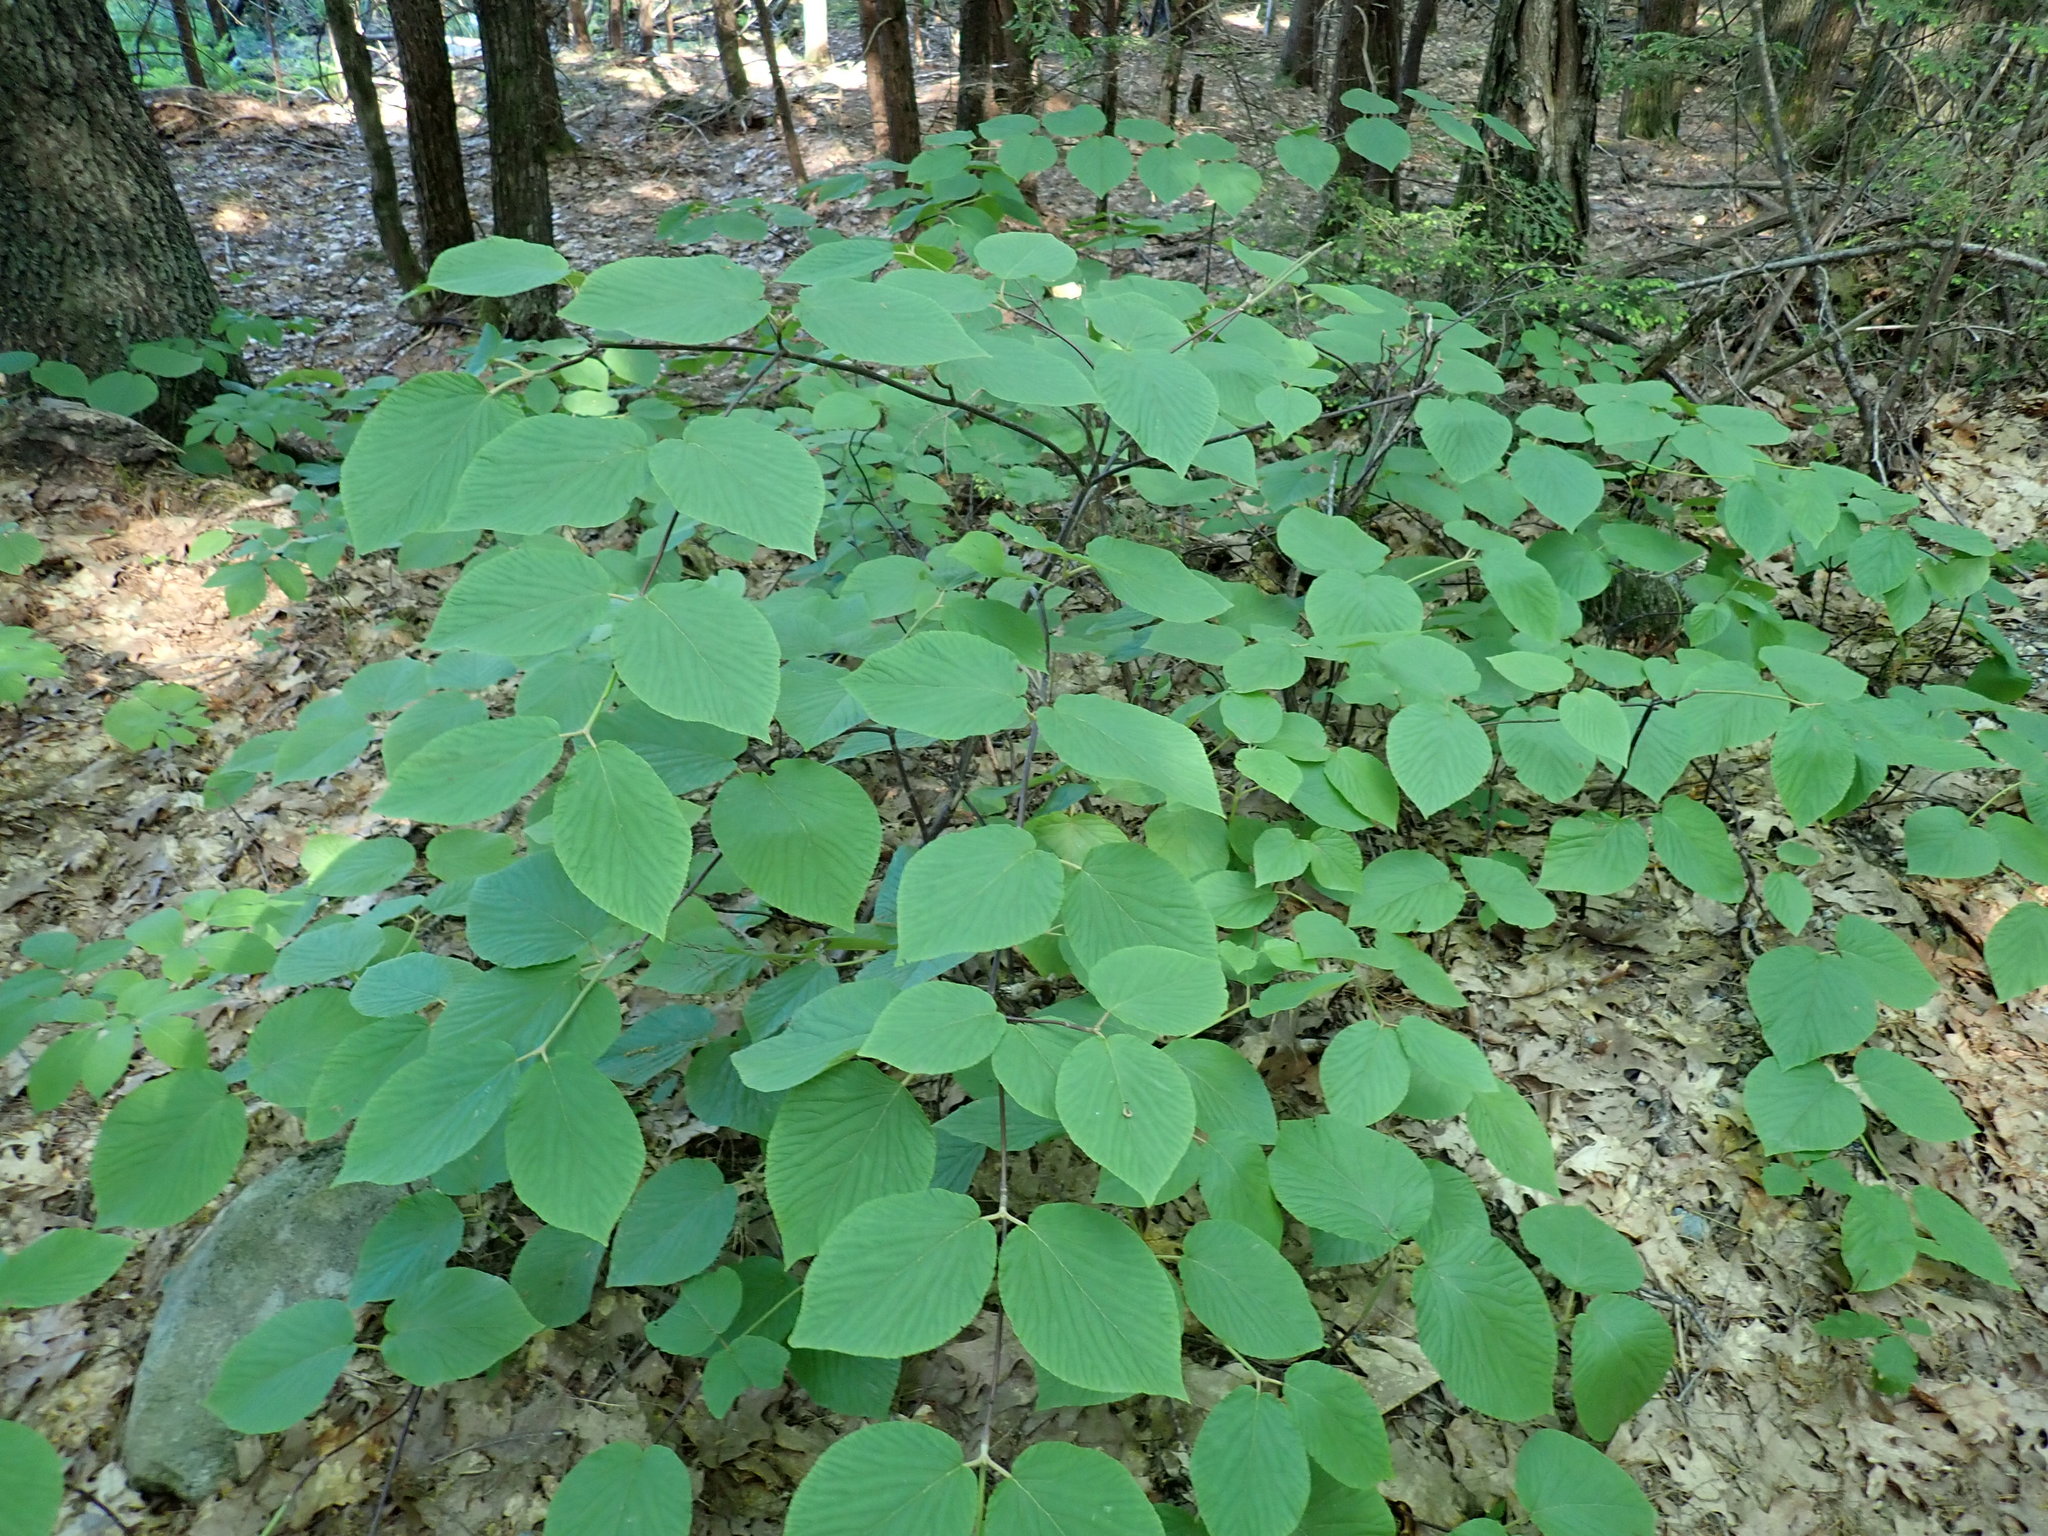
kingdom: Plantae
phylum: Tracheophyta
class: Magnoliopsida
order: Dipsacales
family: Viburnaceae
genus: Viburnum
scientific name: Viburnum lantanoides
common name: Hobblebush
